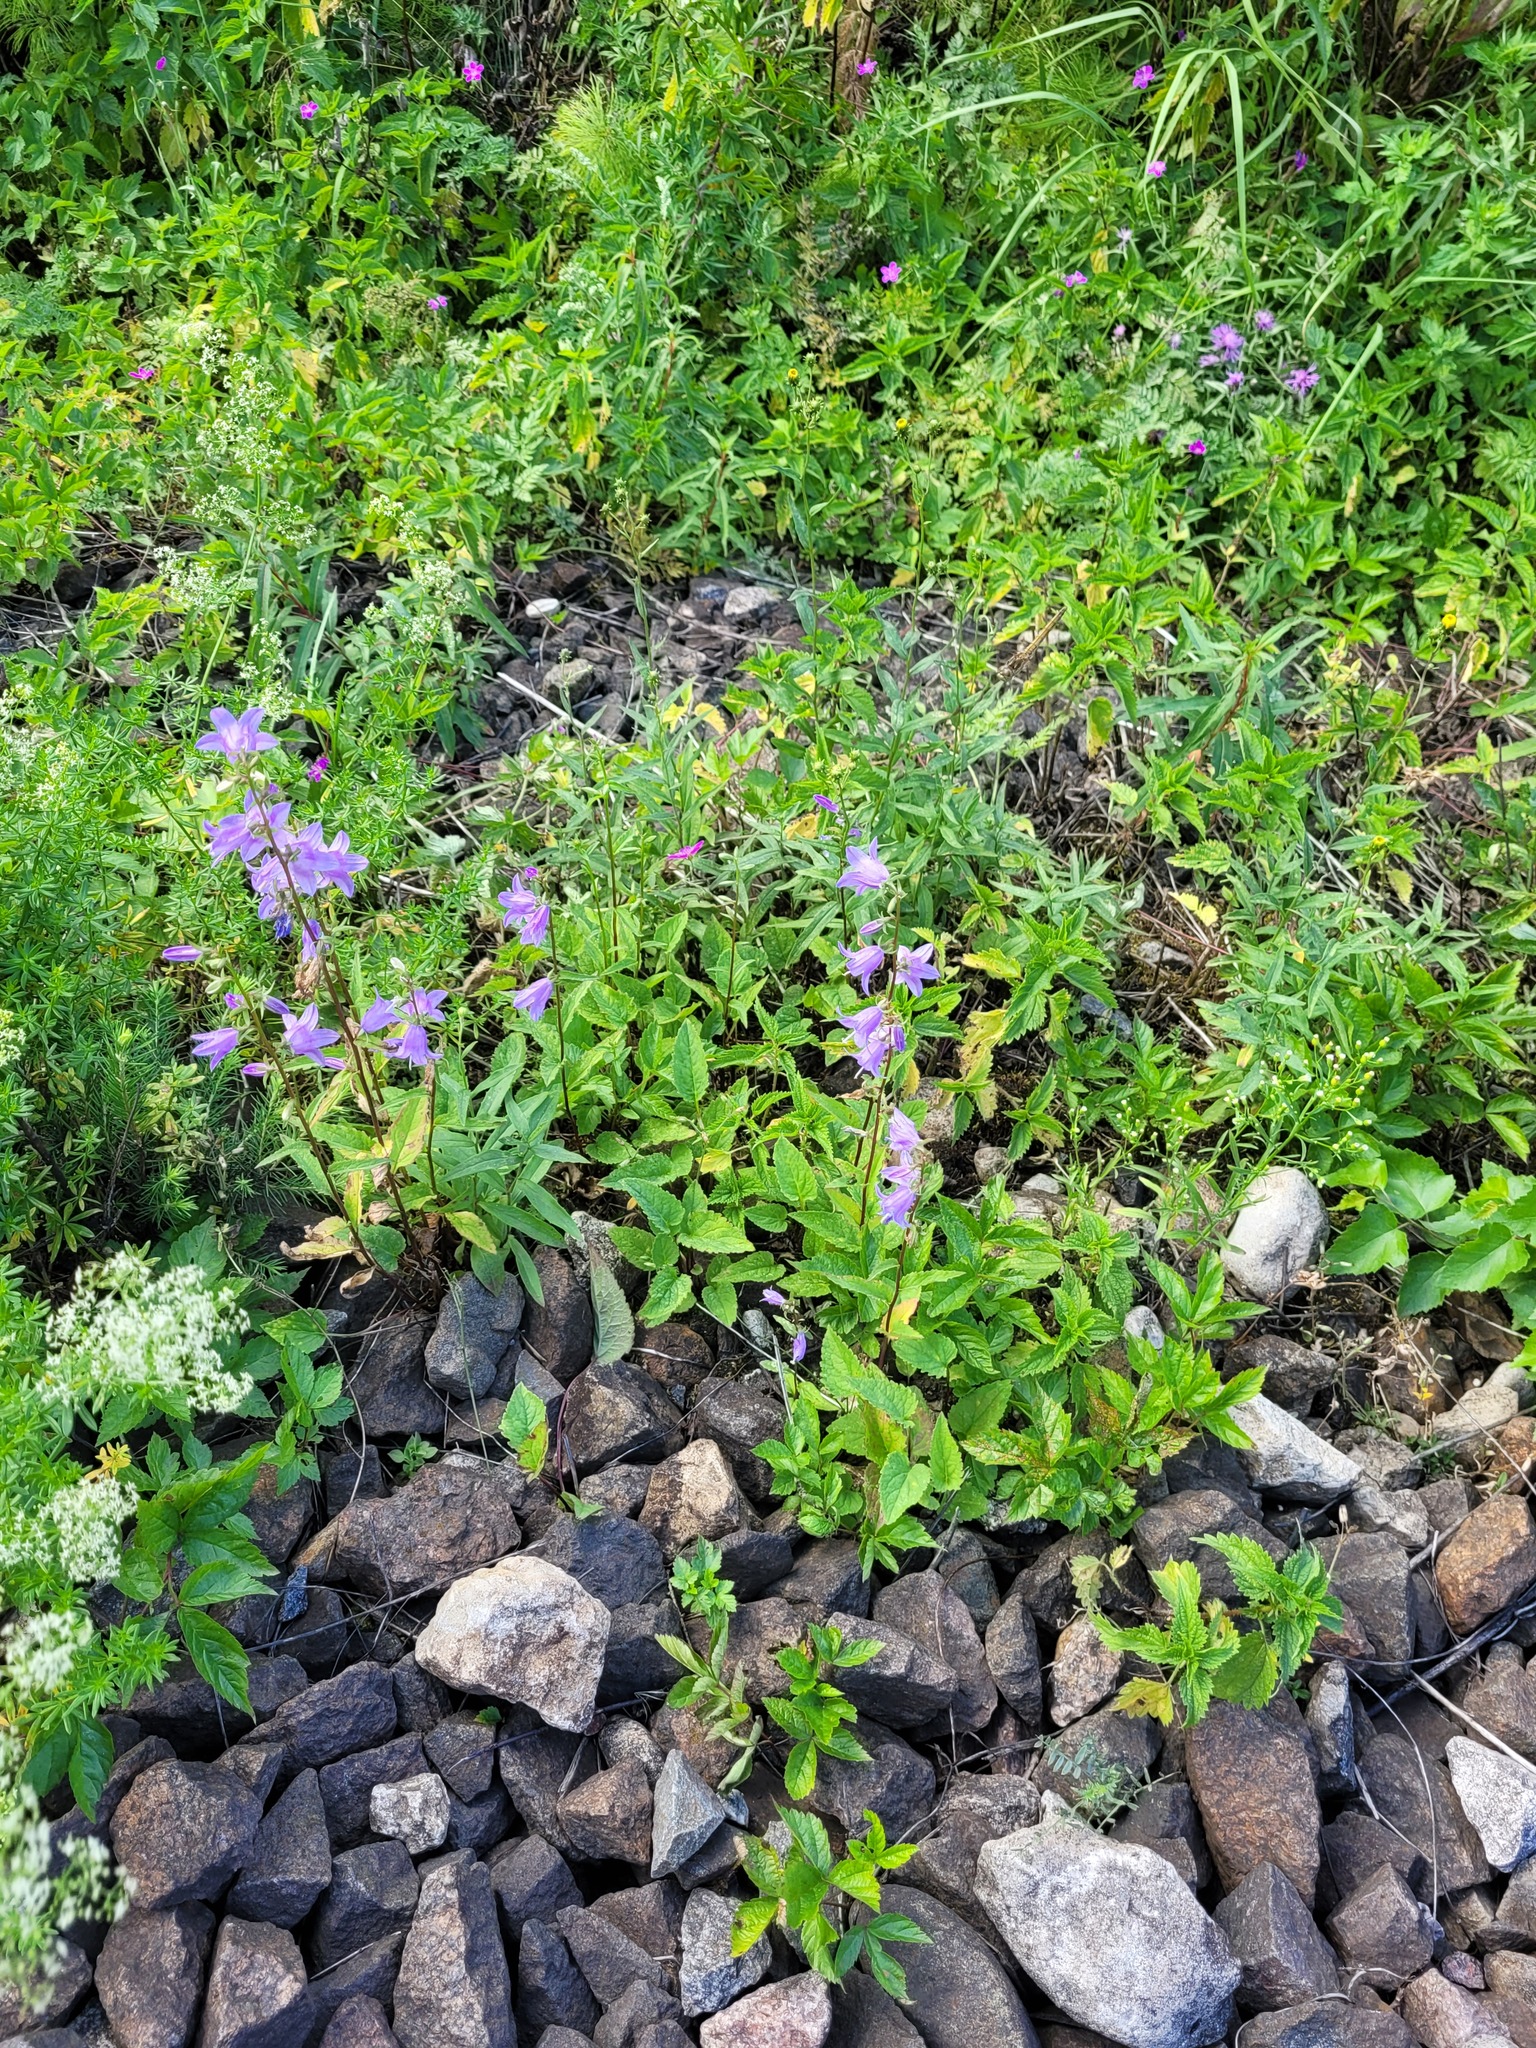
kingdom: Plantae
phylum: Tracheophyta
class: Magnoliopsida
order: Asterales
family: Campanulaceae
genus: Campanula
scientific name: Campanula rapunculoides
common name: Creeping bellflower
